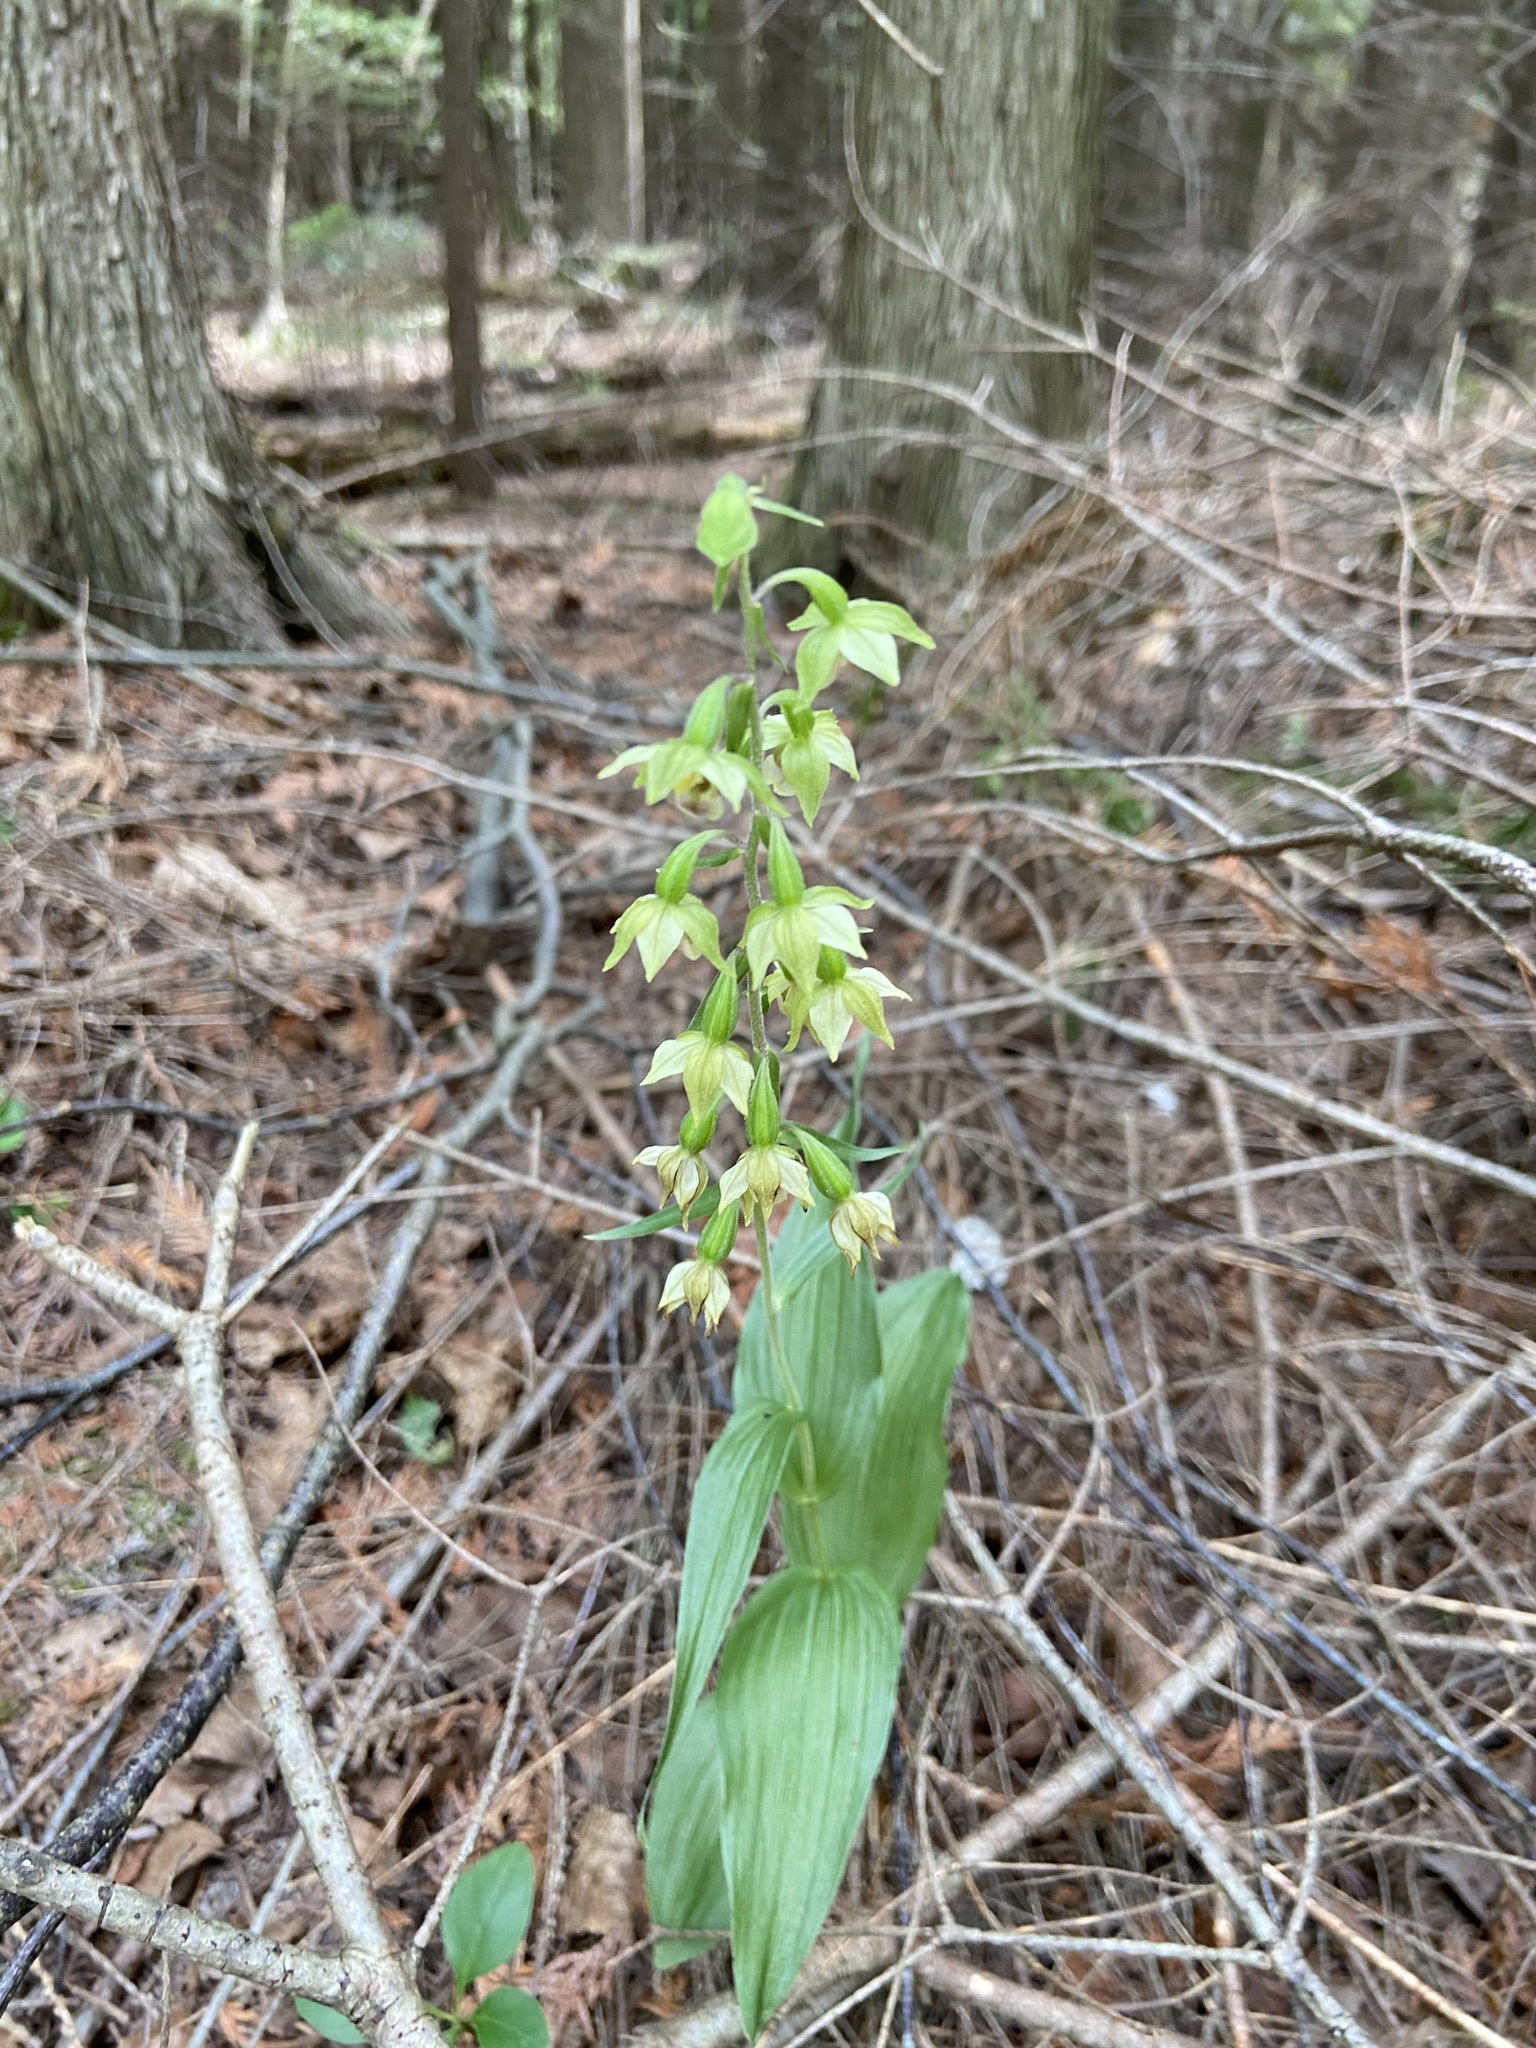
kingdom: Plantae
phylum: Tracheophyta
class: Liliopsida
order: Asparagales
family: Orchidaceae
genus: Epipactis
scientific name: Epipactis helleborine
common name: Broad-leaved helleborine
